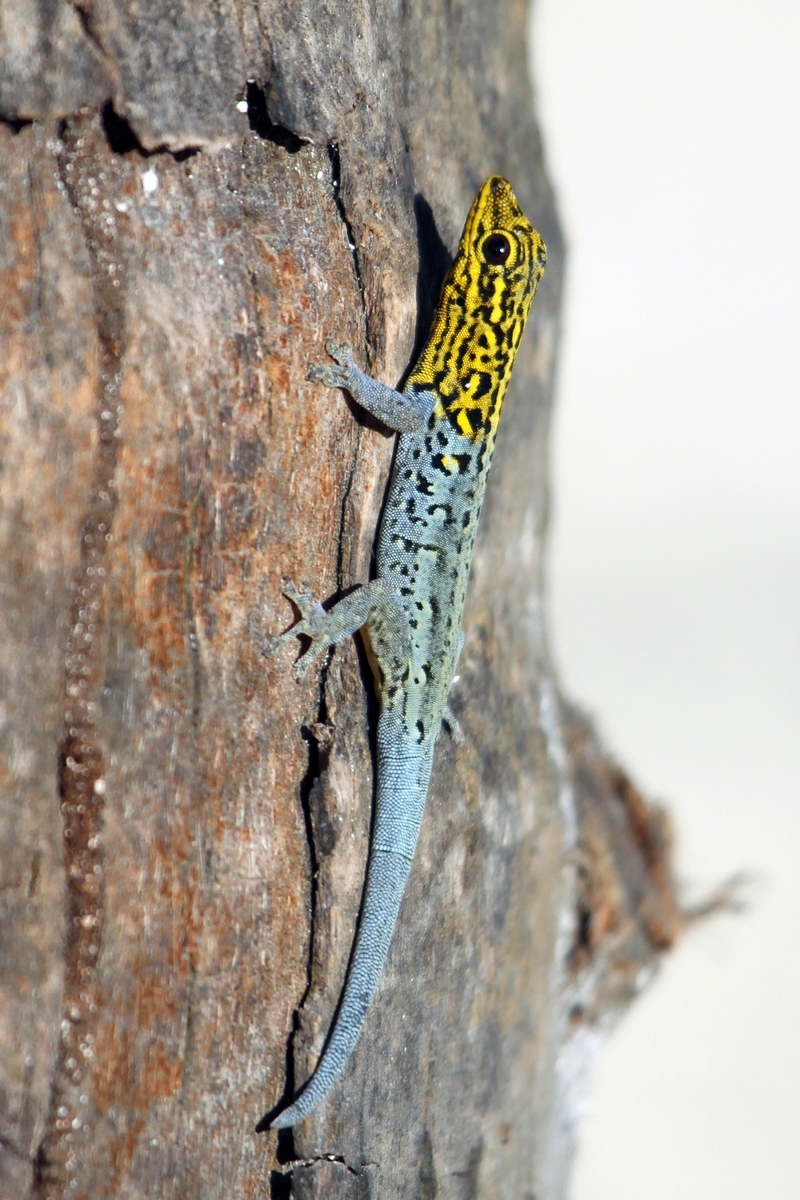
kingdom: Animalia
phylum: Chordata
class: Squamata
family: Gekkonidae
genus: Lygodactylus
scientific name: Lygodactylus picturatus
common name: Painted dwarf gecko
